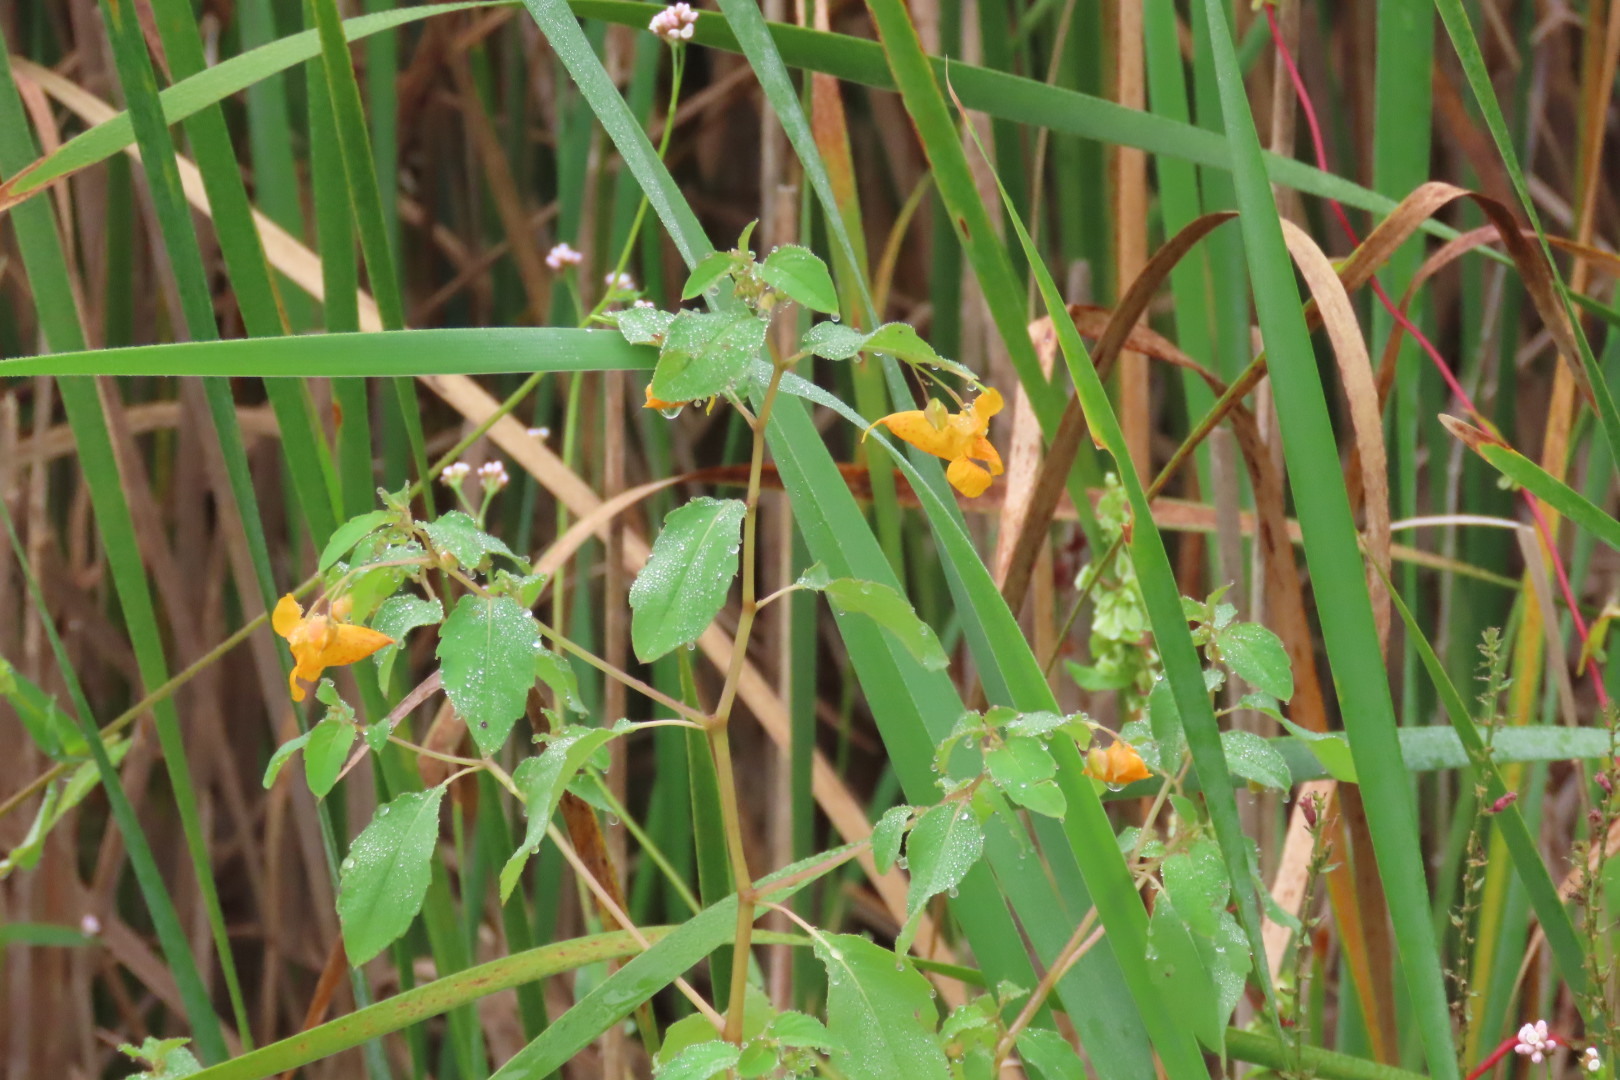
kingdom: Plantae
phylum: Tracheophyta
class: Magnoliopsida
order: Ericales
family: Balsaminaceae
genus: Impatiens
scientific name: Impatiens capensis
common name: Orange balsam
